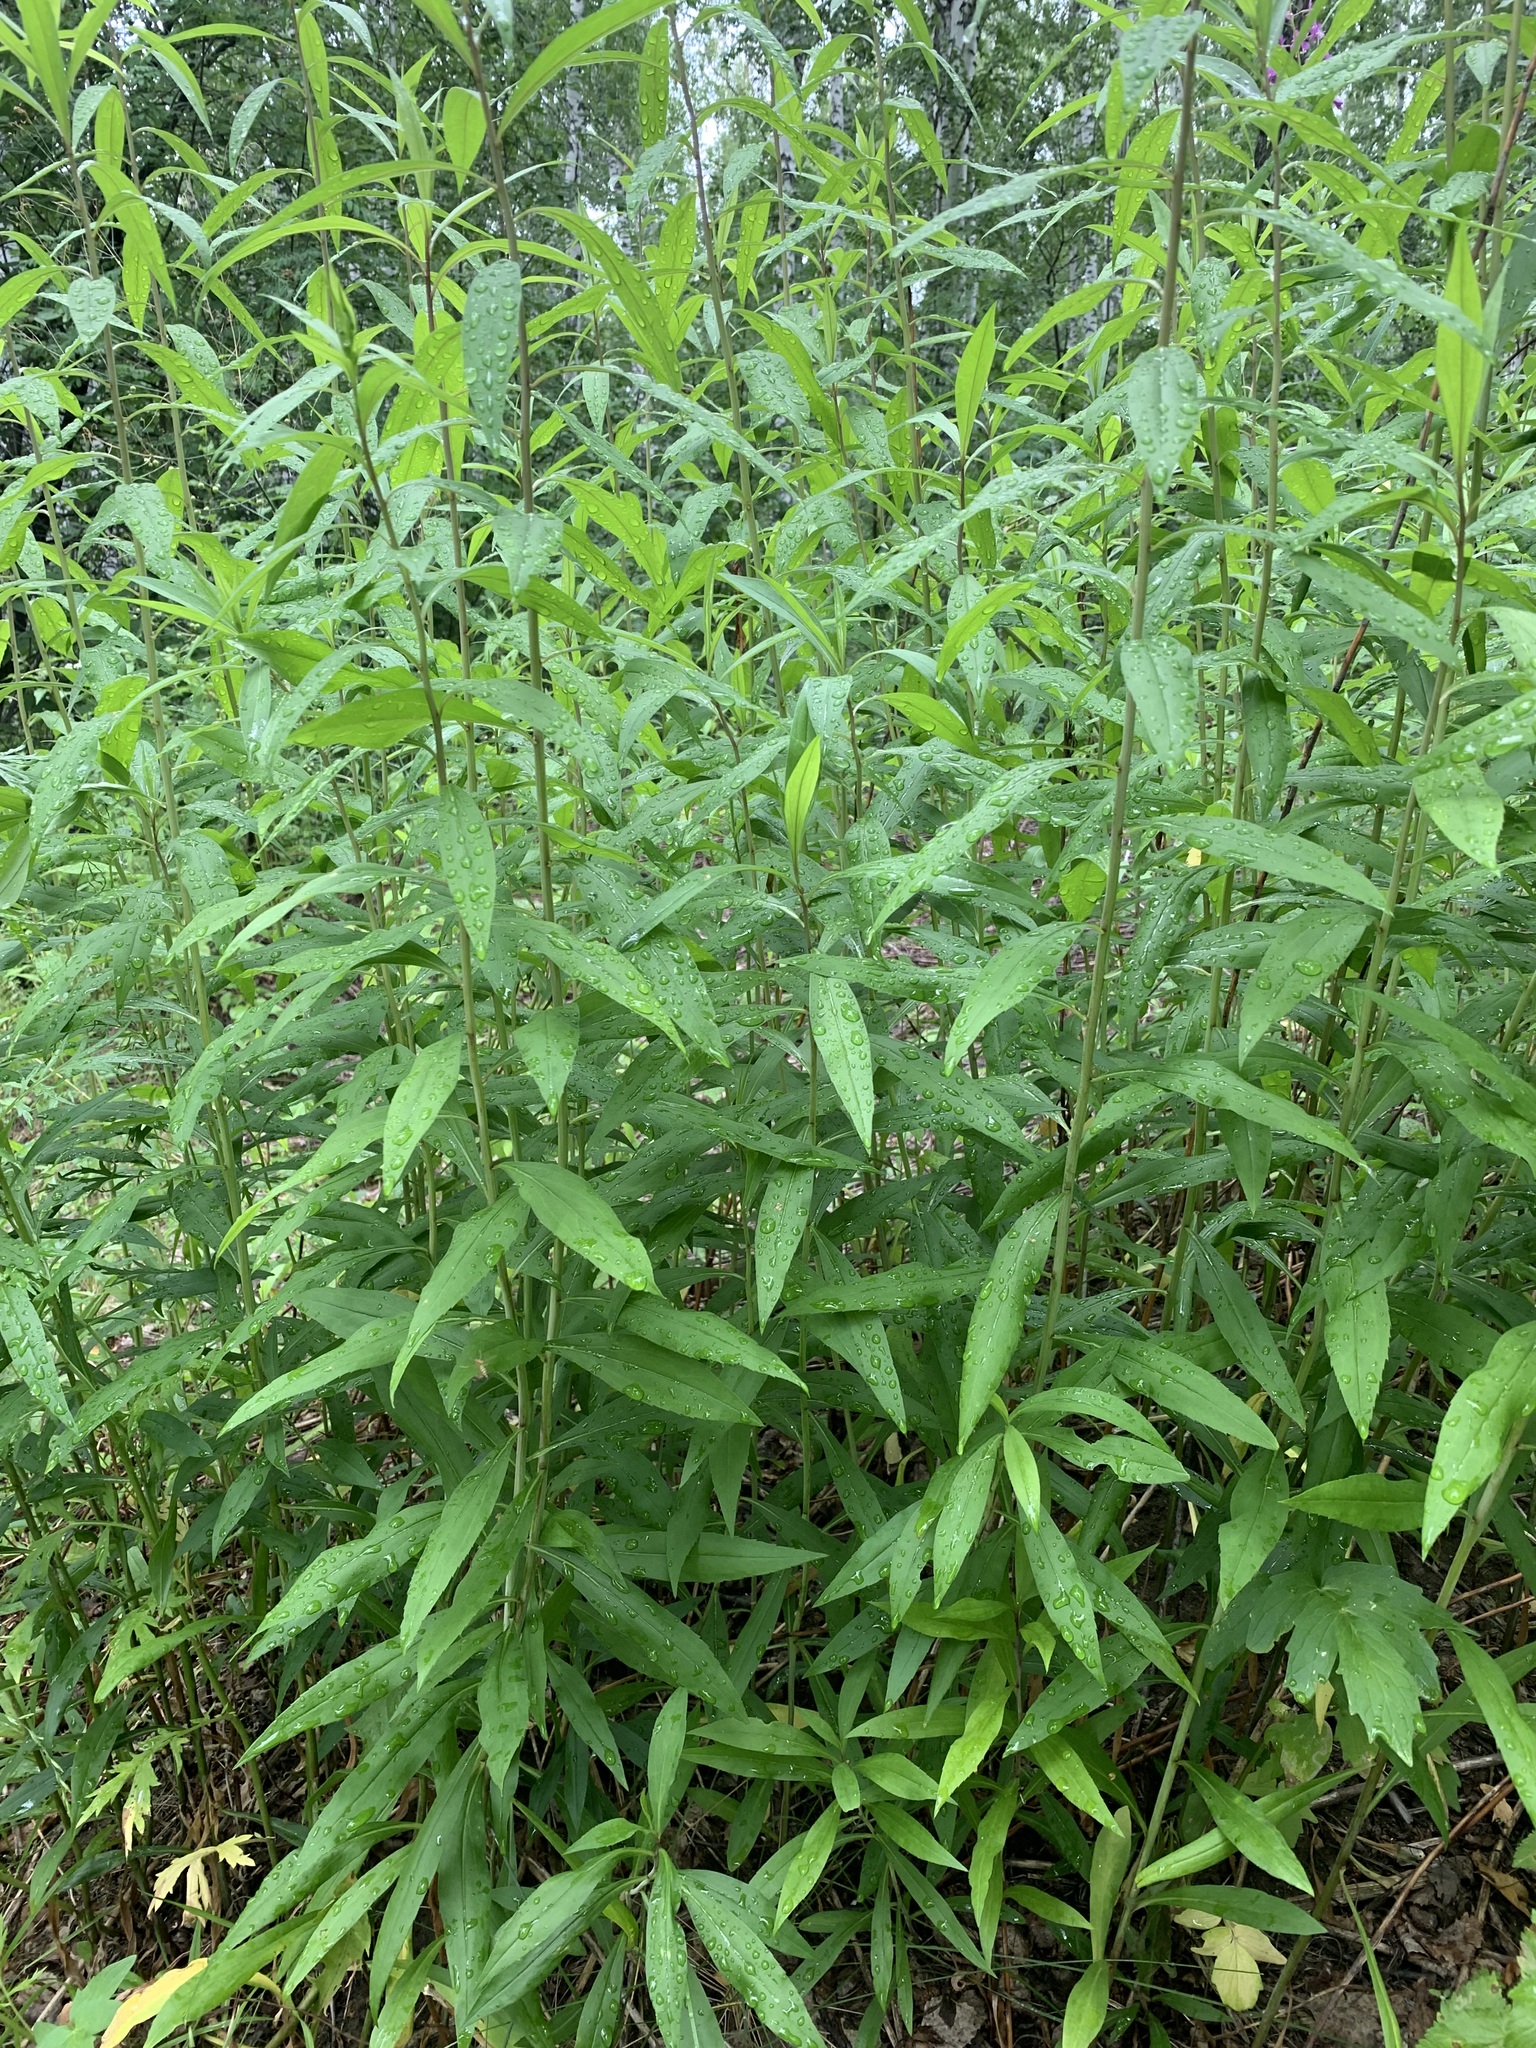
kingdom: Plantae
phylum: Tracheophyta
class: Magnoliopsida
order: Asterales
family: Asteraceae
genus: Solidago
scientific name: Solidago gigantea
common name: Giant goldenrod
